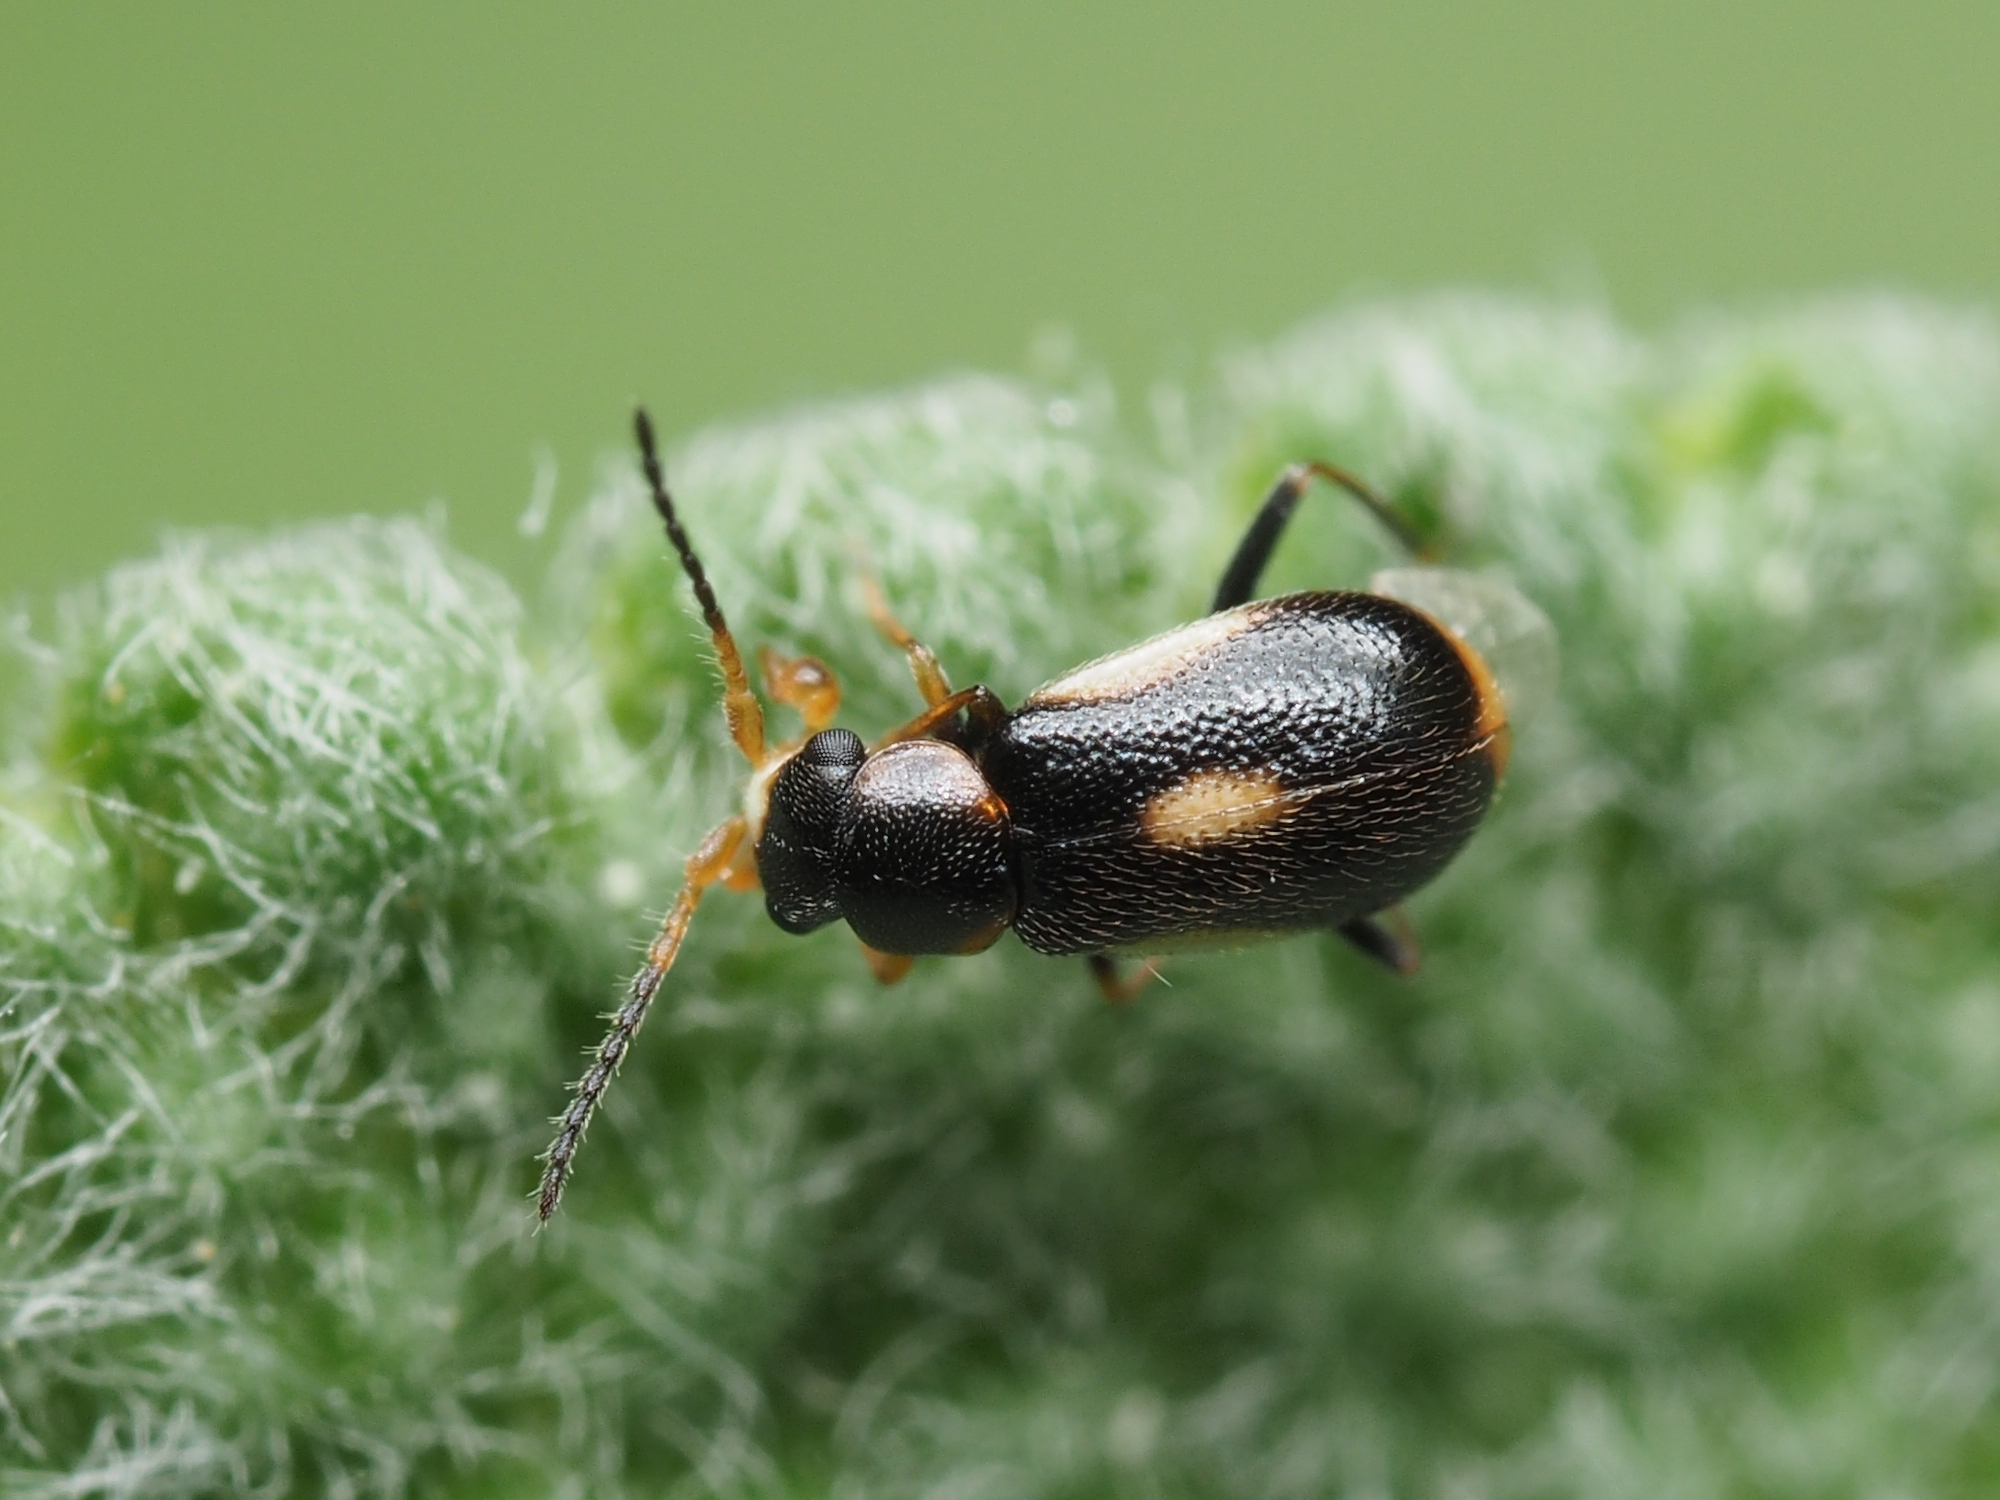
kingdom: Animalia
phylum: Arthropoda
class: Insecta
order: Coleoptera
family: Melyridae
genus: Colotes
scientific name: Colotes maculatus
